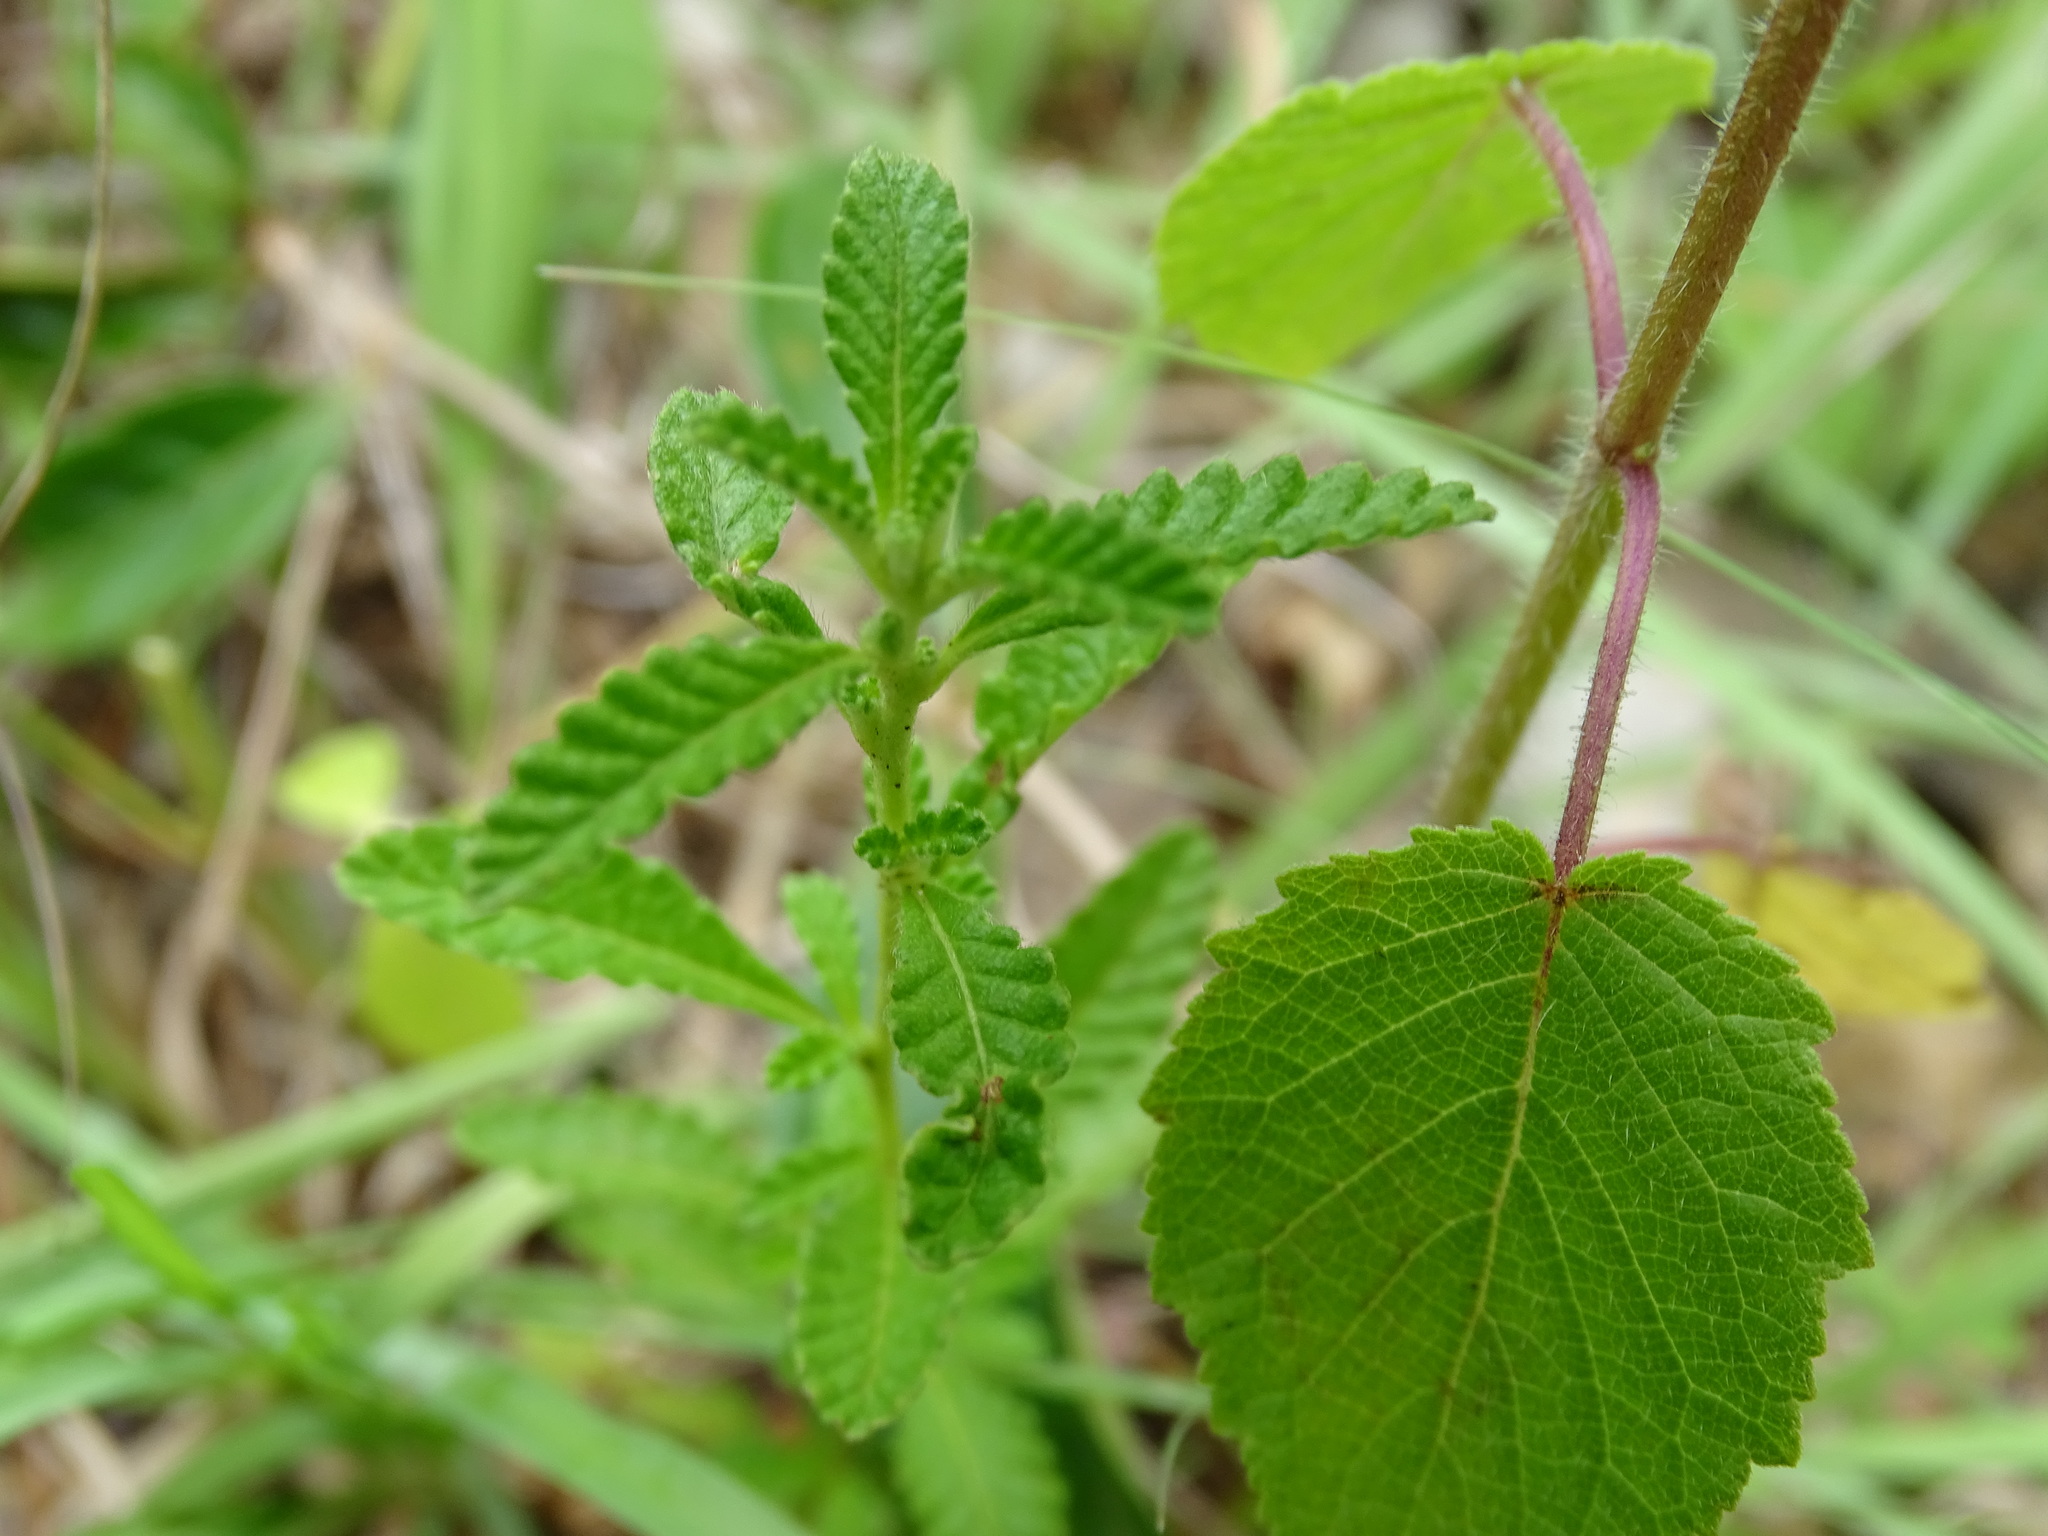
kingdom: Plantae
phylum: Tracheophyta
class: Magnoliopsida
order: Malpighiales
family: Turneraceae
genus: Turnera
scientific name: Turnera diffusa
